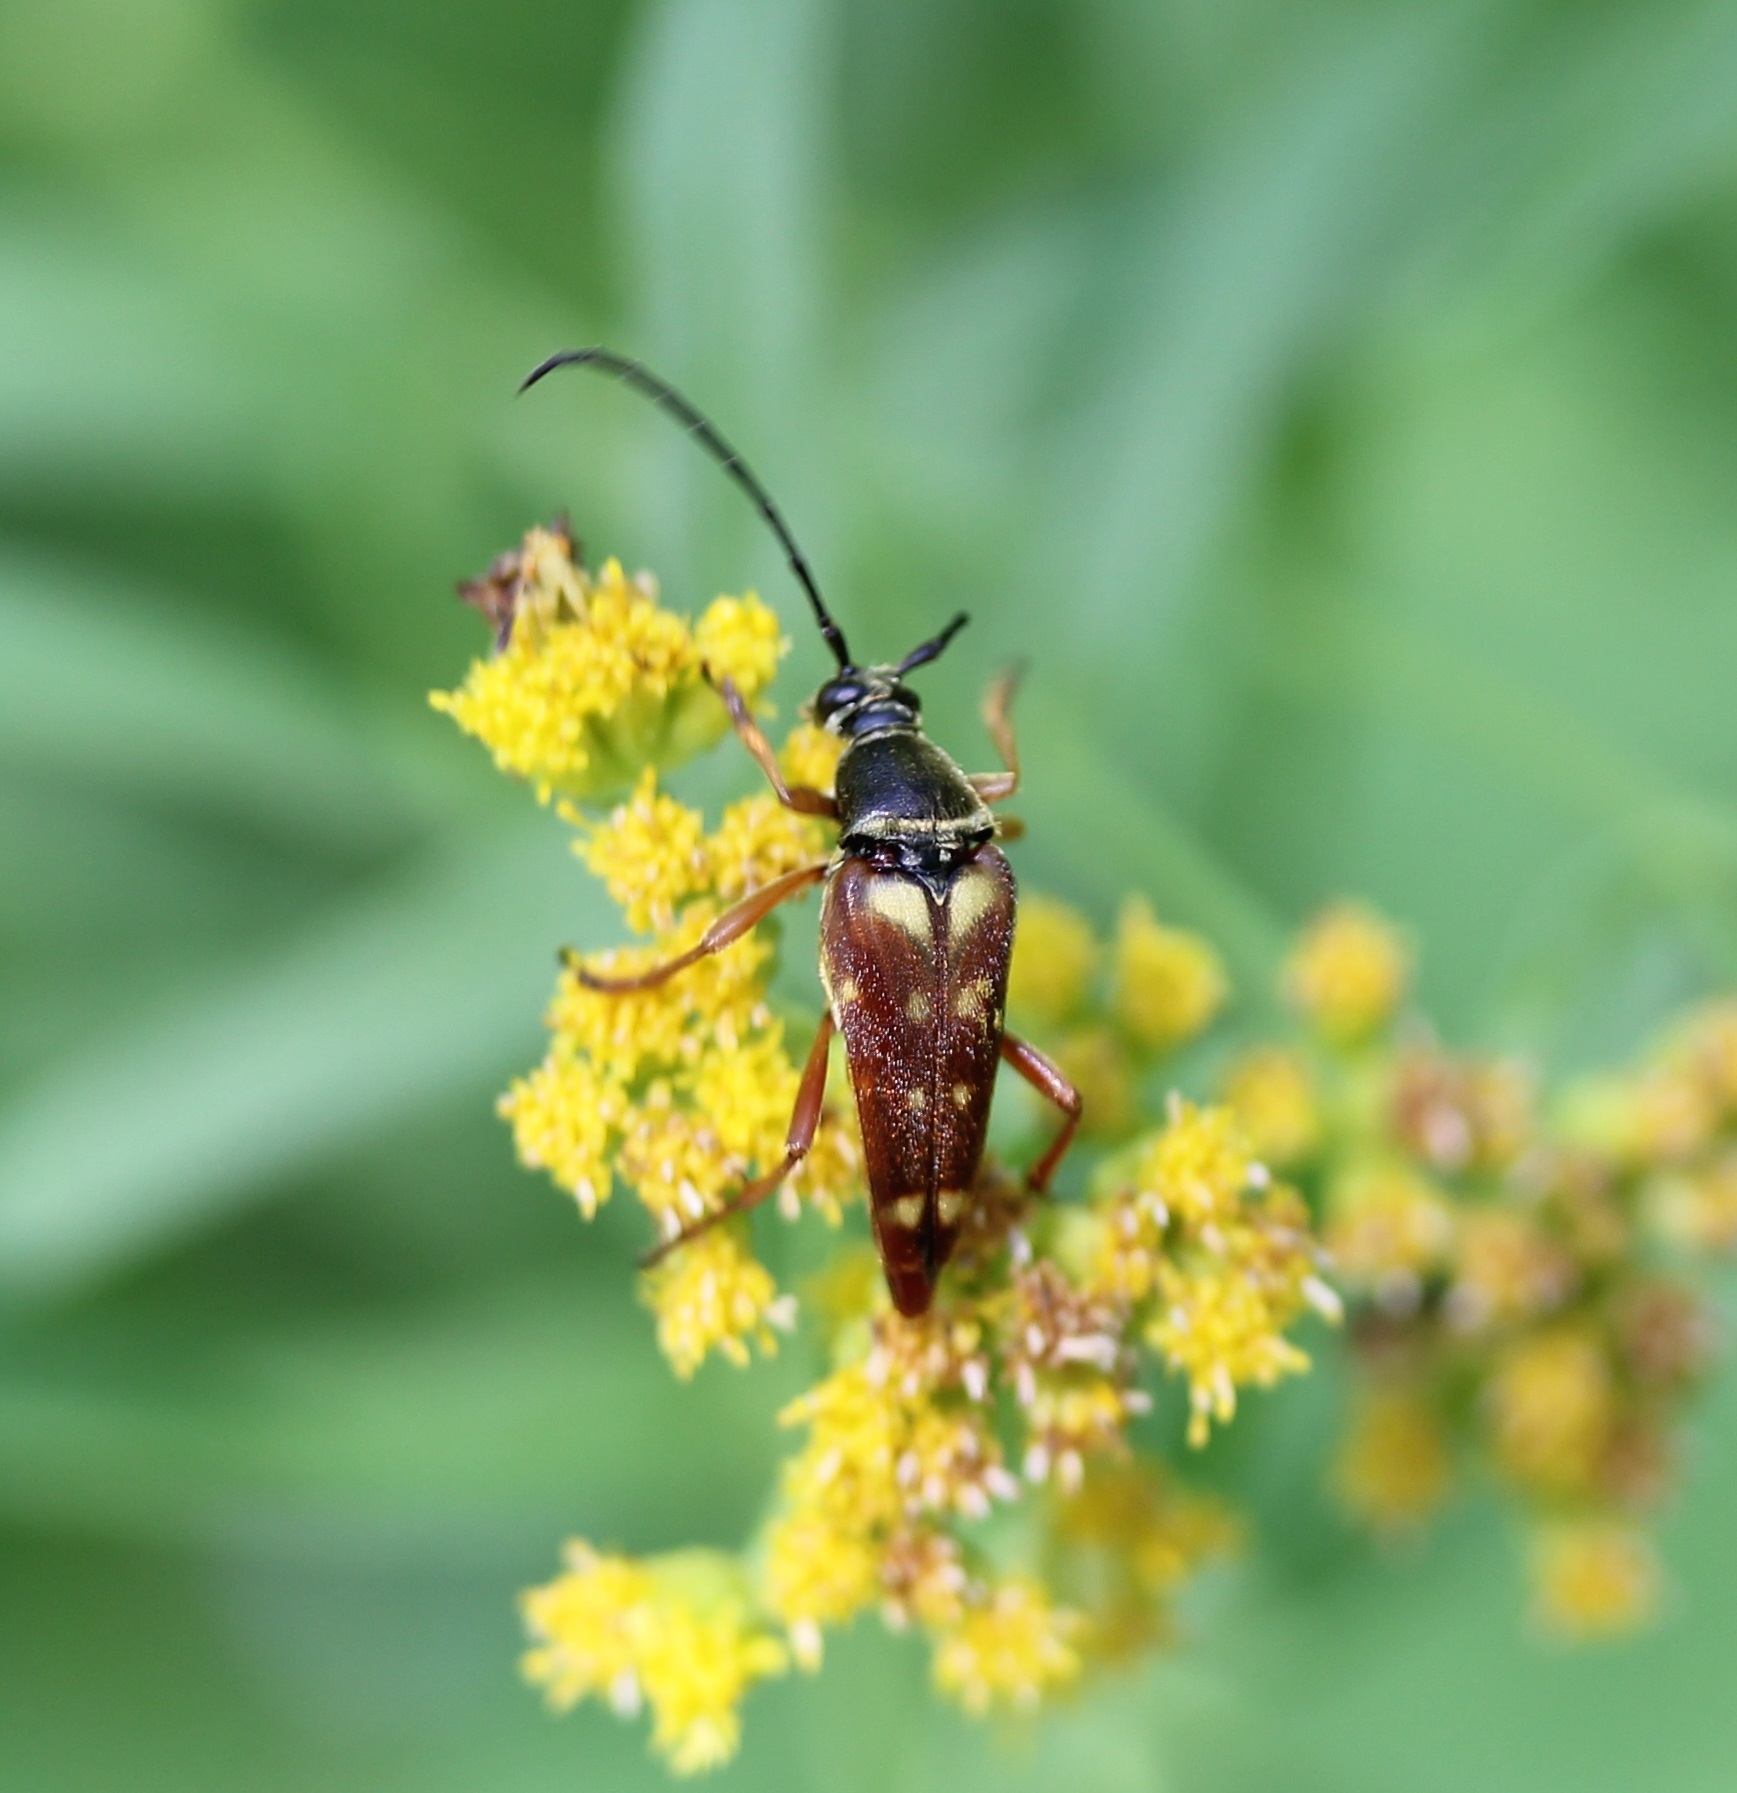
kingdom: Animalia
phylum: Arthropoda
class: Insecta
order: Coleoptera
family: Cerambycidae
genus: Typocerus
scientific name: Typocerus velutinus
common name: Banded longhorn beetle
